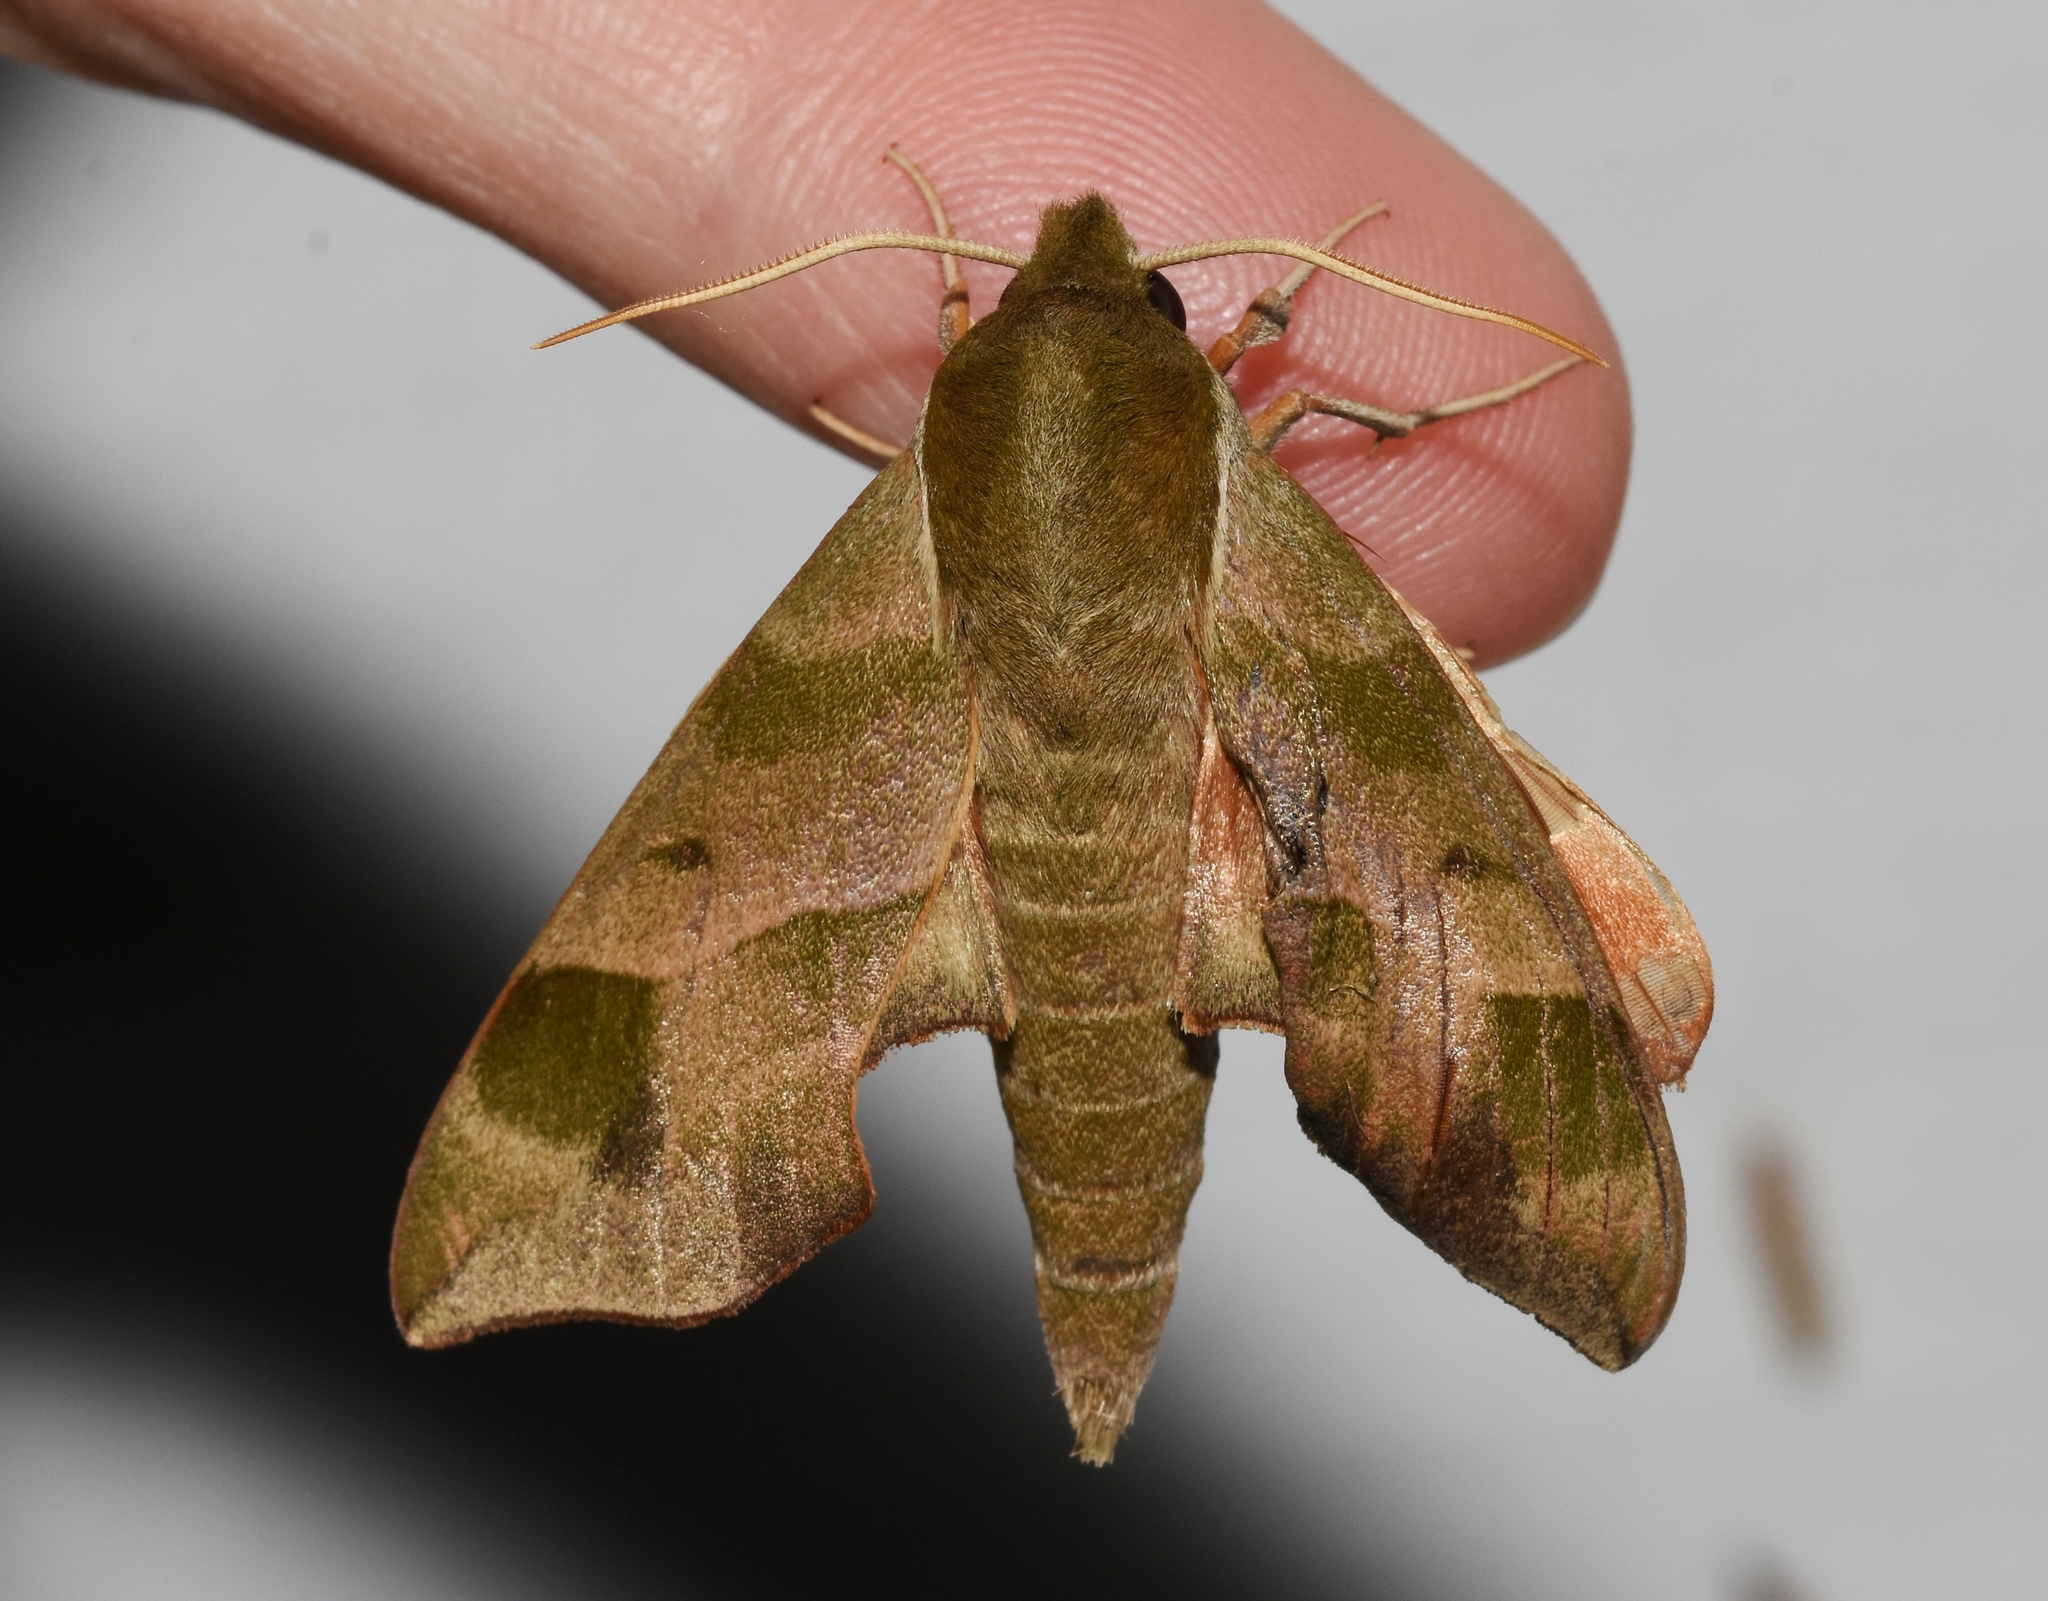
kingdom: Animalia
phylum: Arthropoda
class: Insecta
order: Lepidoptera
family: Sphingidae
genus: Darapsa
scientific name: Darapsa myron
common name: Hog sphinx
